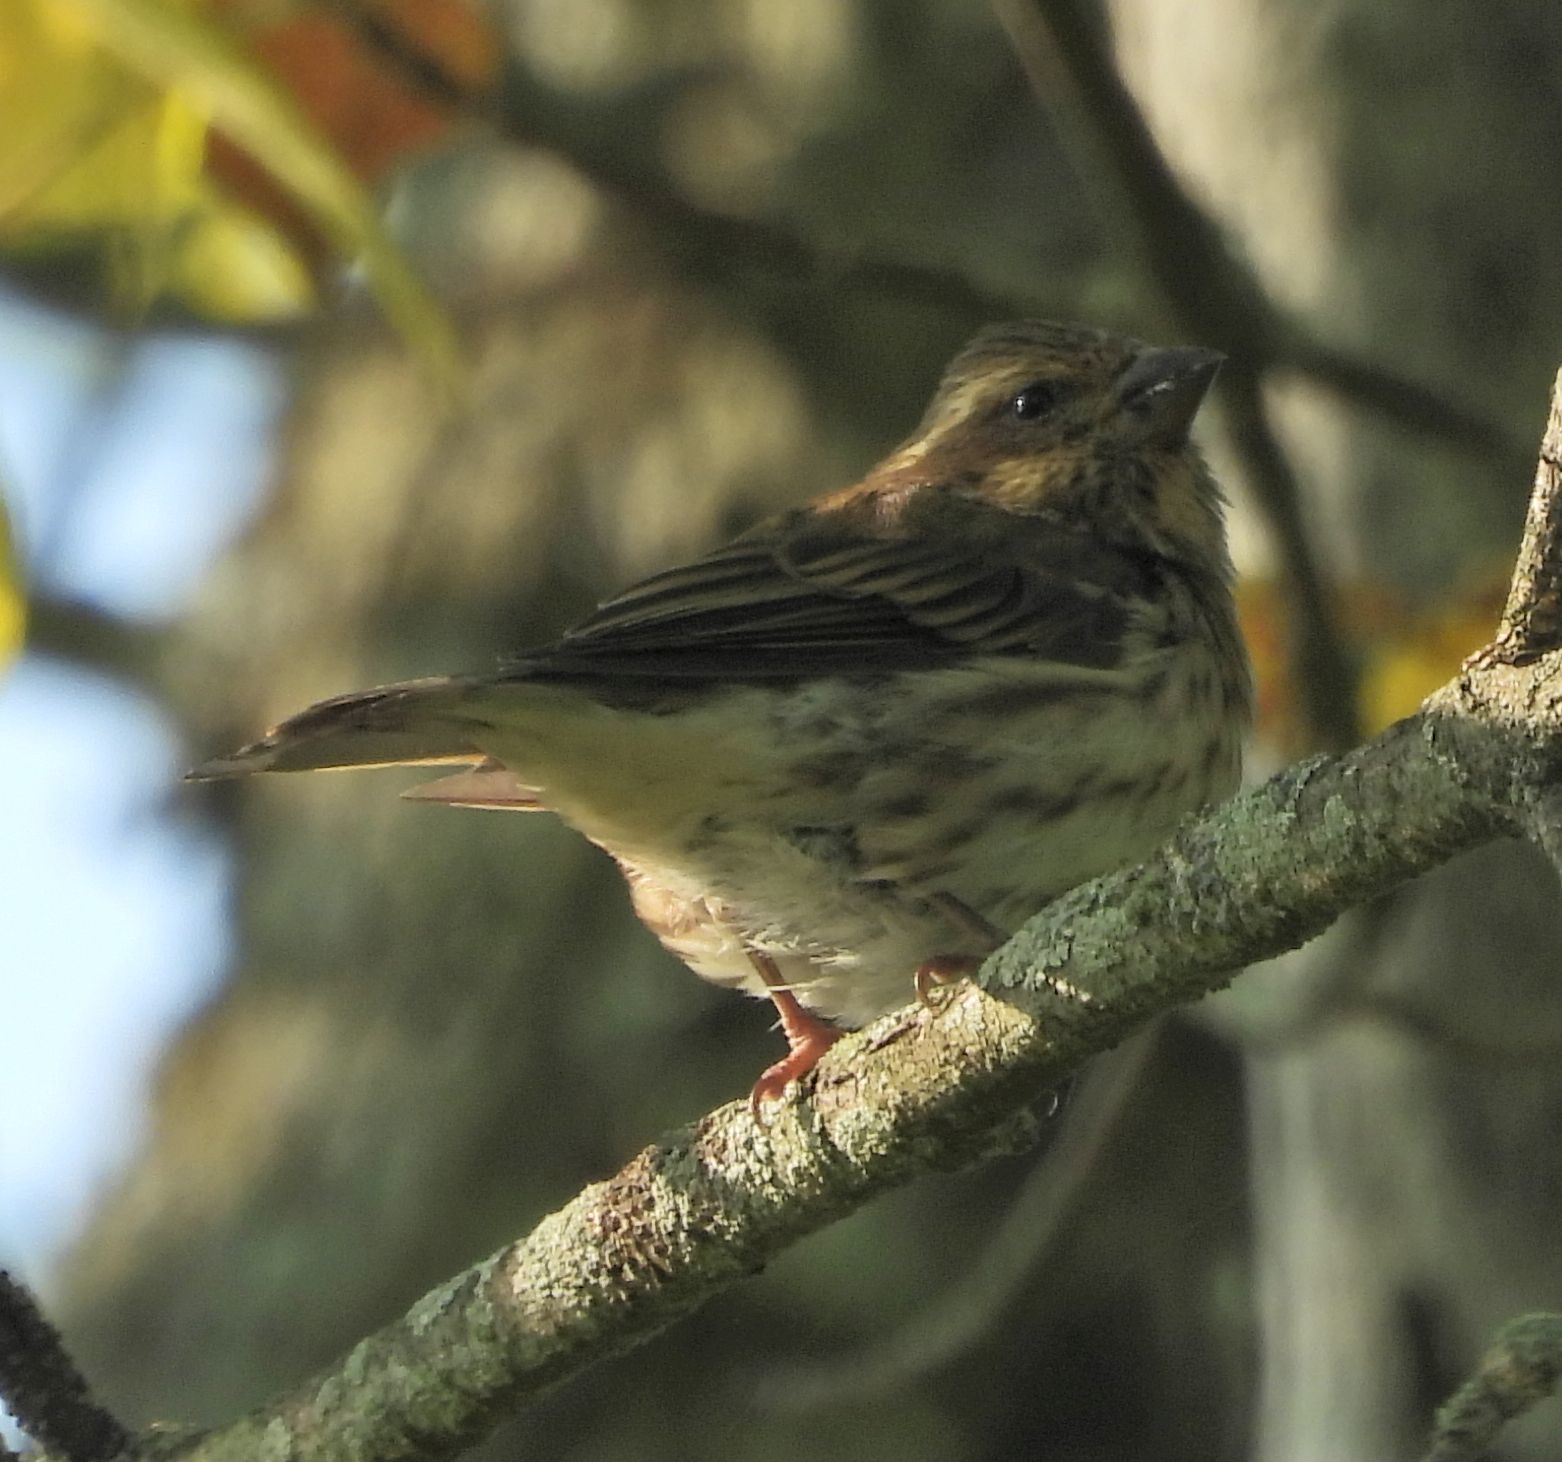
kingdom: Animalia
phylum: Chordata
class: Aves
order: Passeriformes
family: Fringillidae
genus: Haemorhous
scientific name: Haemorhous purpureus
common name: Purple finch
